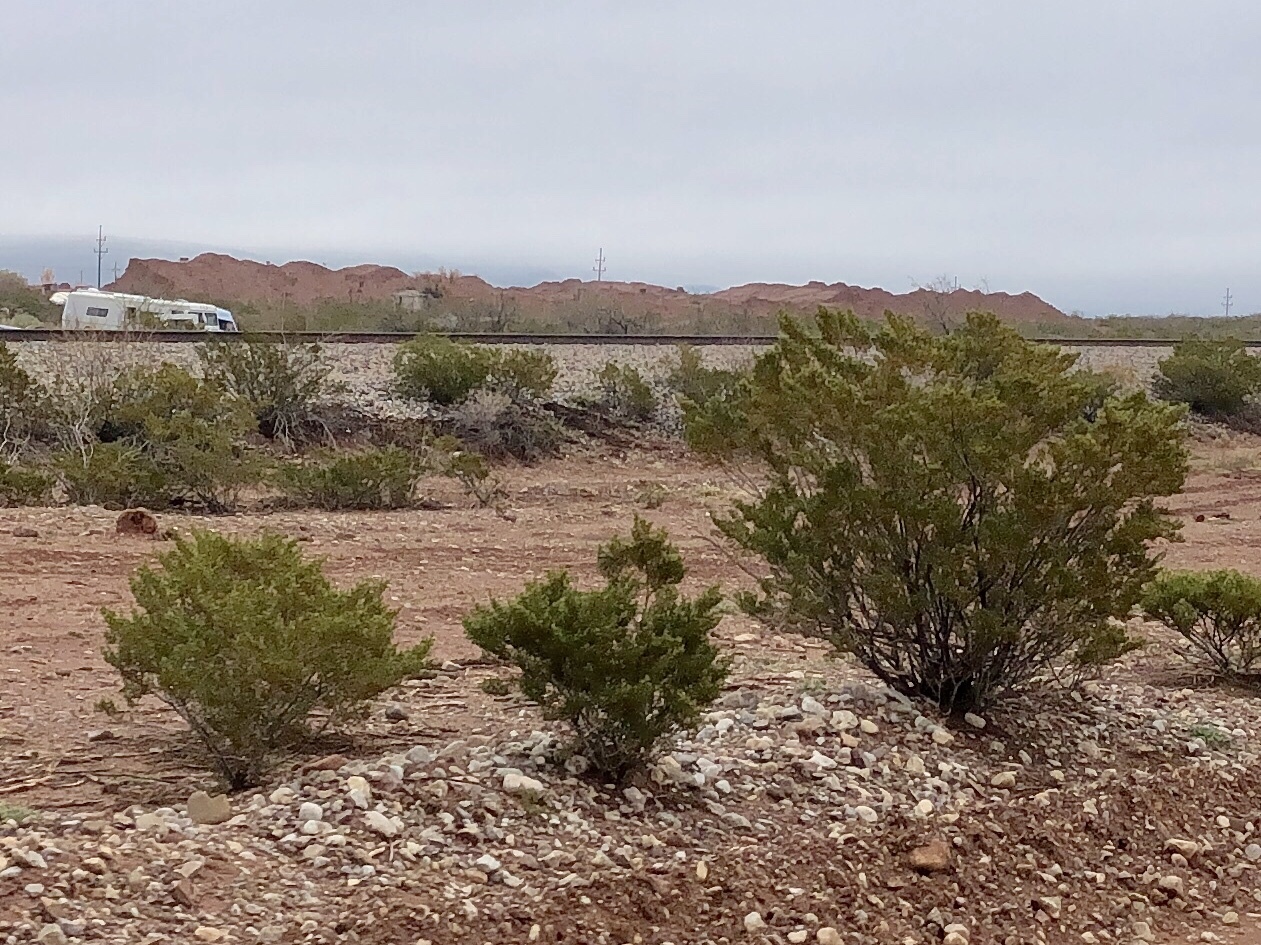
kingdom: Plantae
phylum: Tracheophyta
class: Magnoliopsida
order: Zygophyllales
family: Zygophyllaceae
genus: Larrea
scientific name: Larrea tridentata
